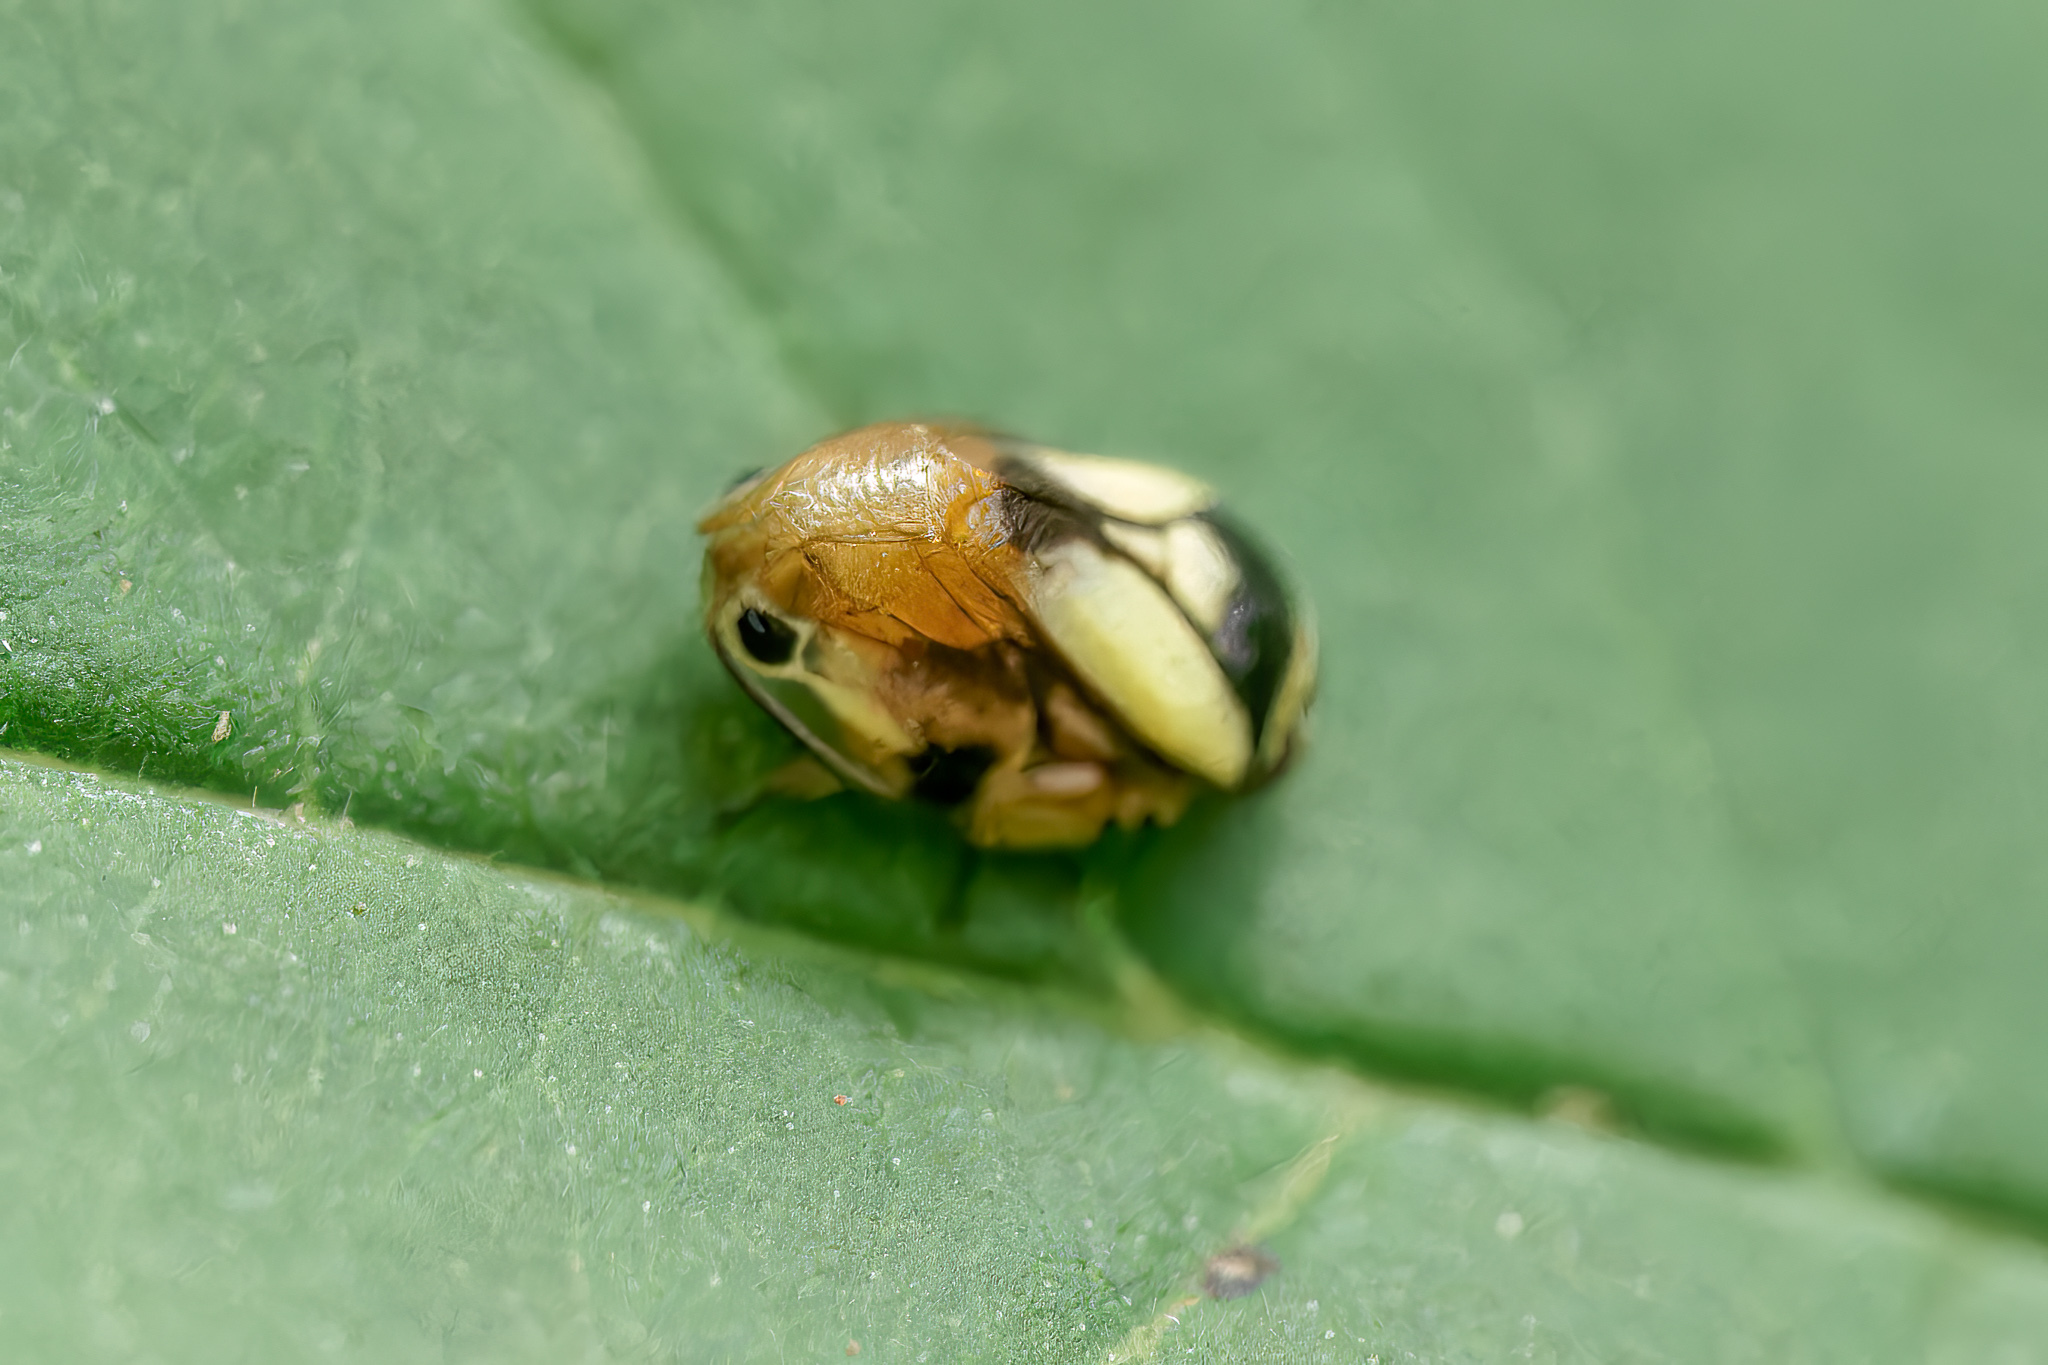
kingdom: Animalia
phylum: Arthropoda
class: Insecta
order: Hemiptera
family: Clastopteridae
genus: Clastoptera
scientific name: Clastoptera proteus
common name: Dogwood spittlebug
